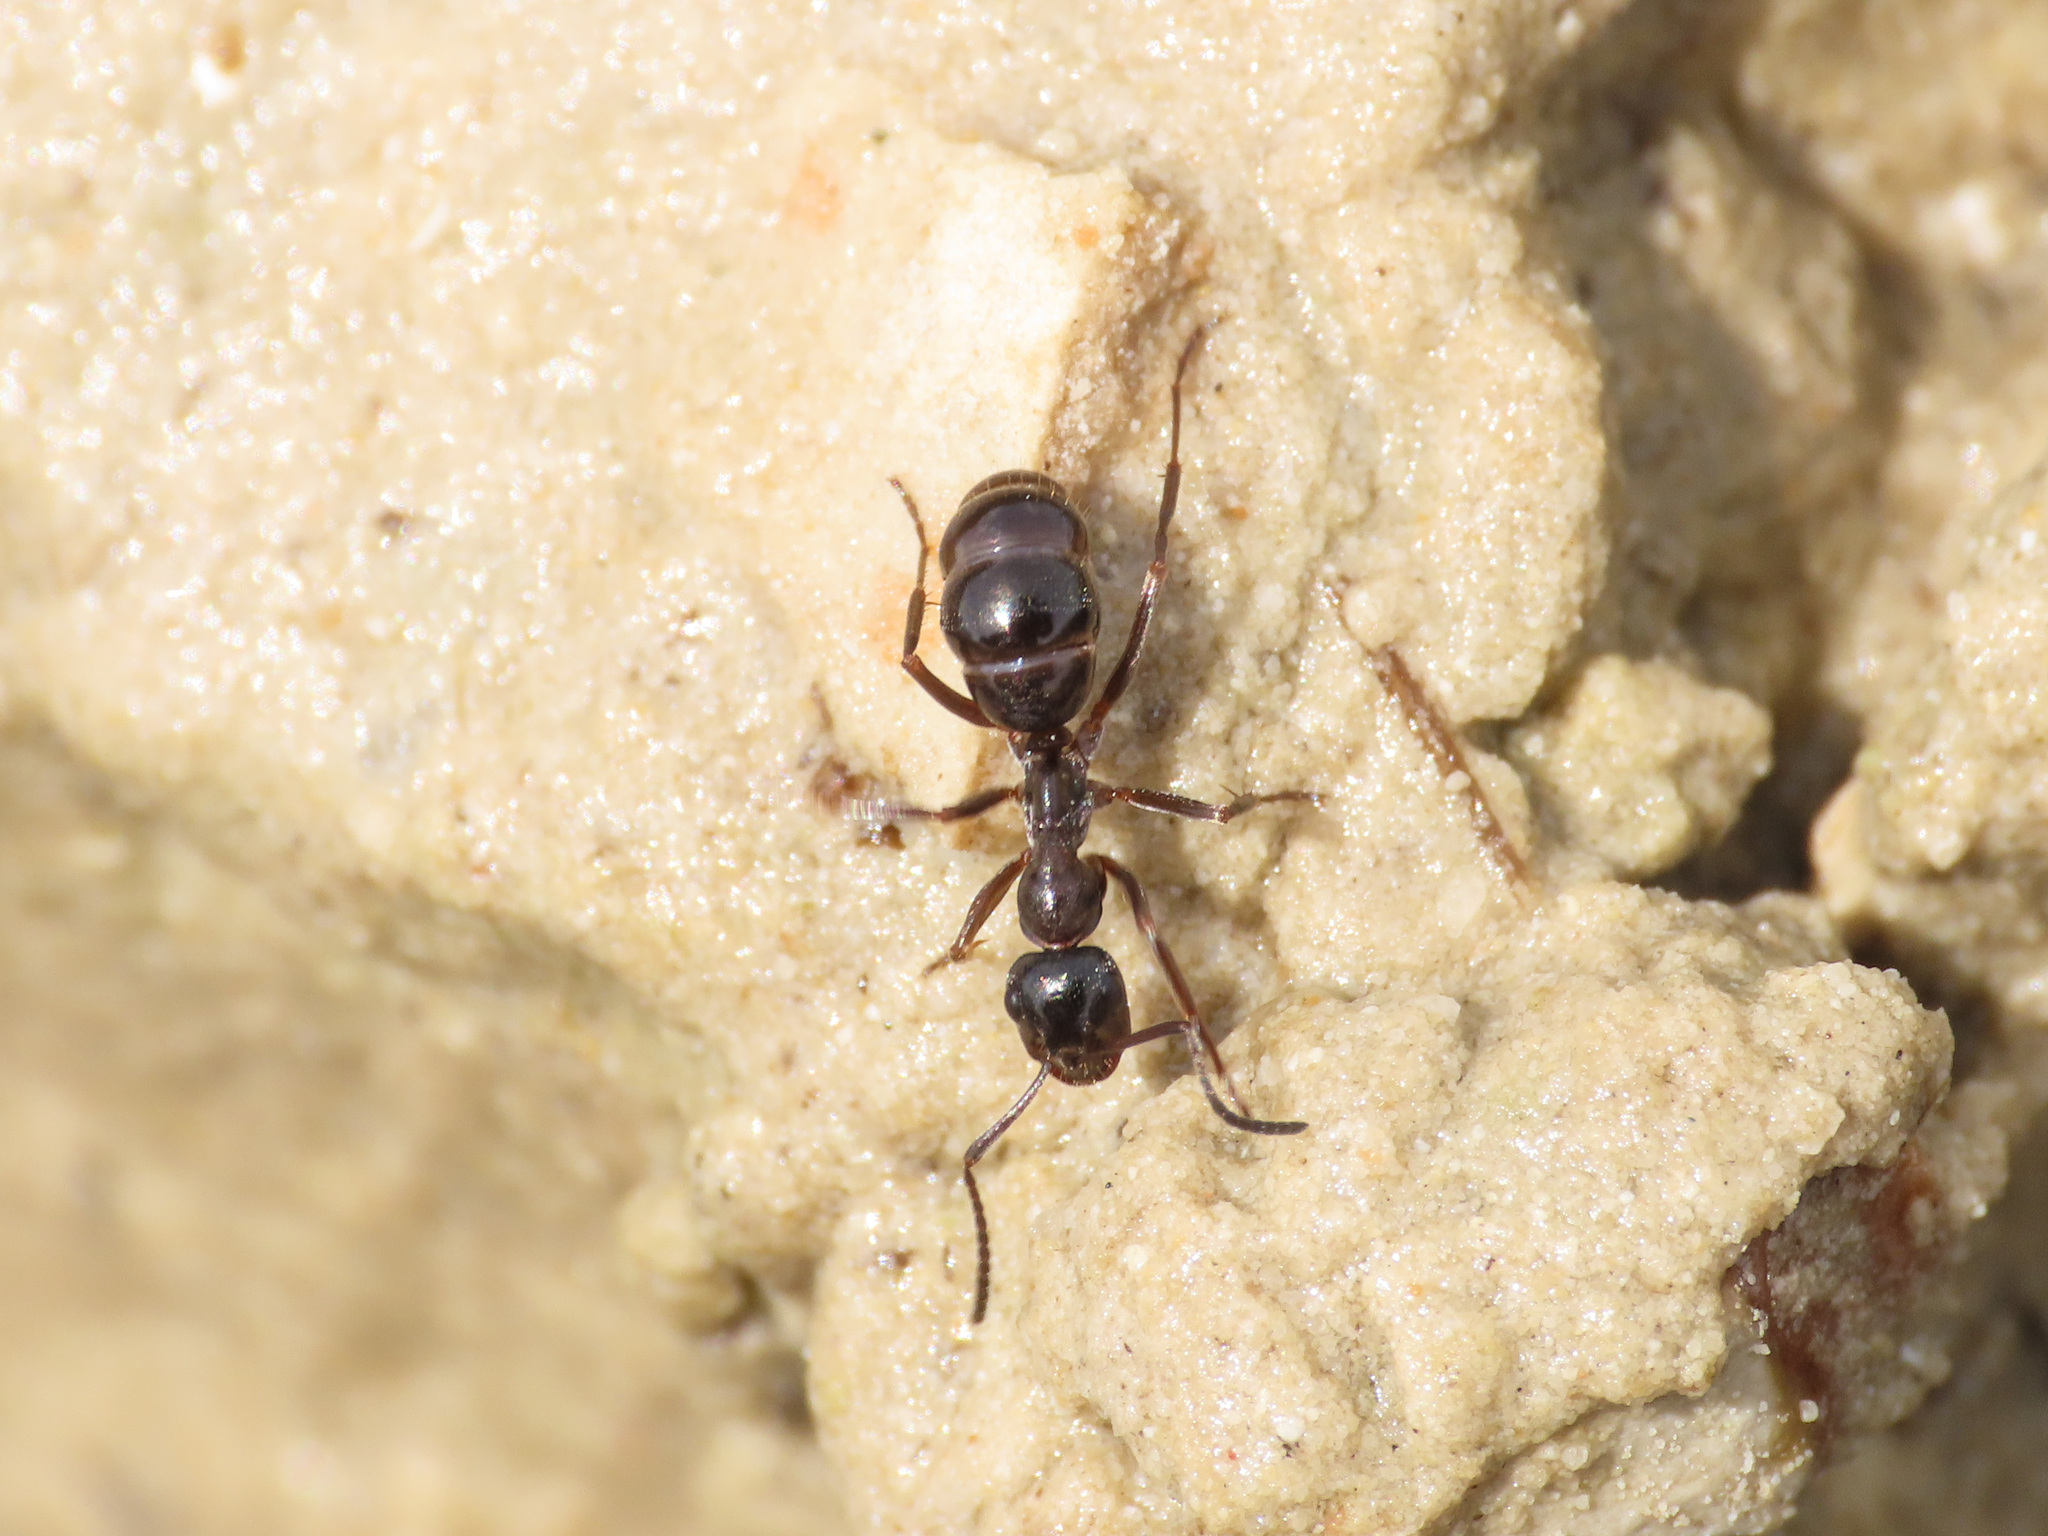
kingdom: Animalia
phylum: Arthropoda
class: Insecta
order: Hymenoptera
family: Formicidae
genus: Camponotus
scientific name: Camponotus fallax
